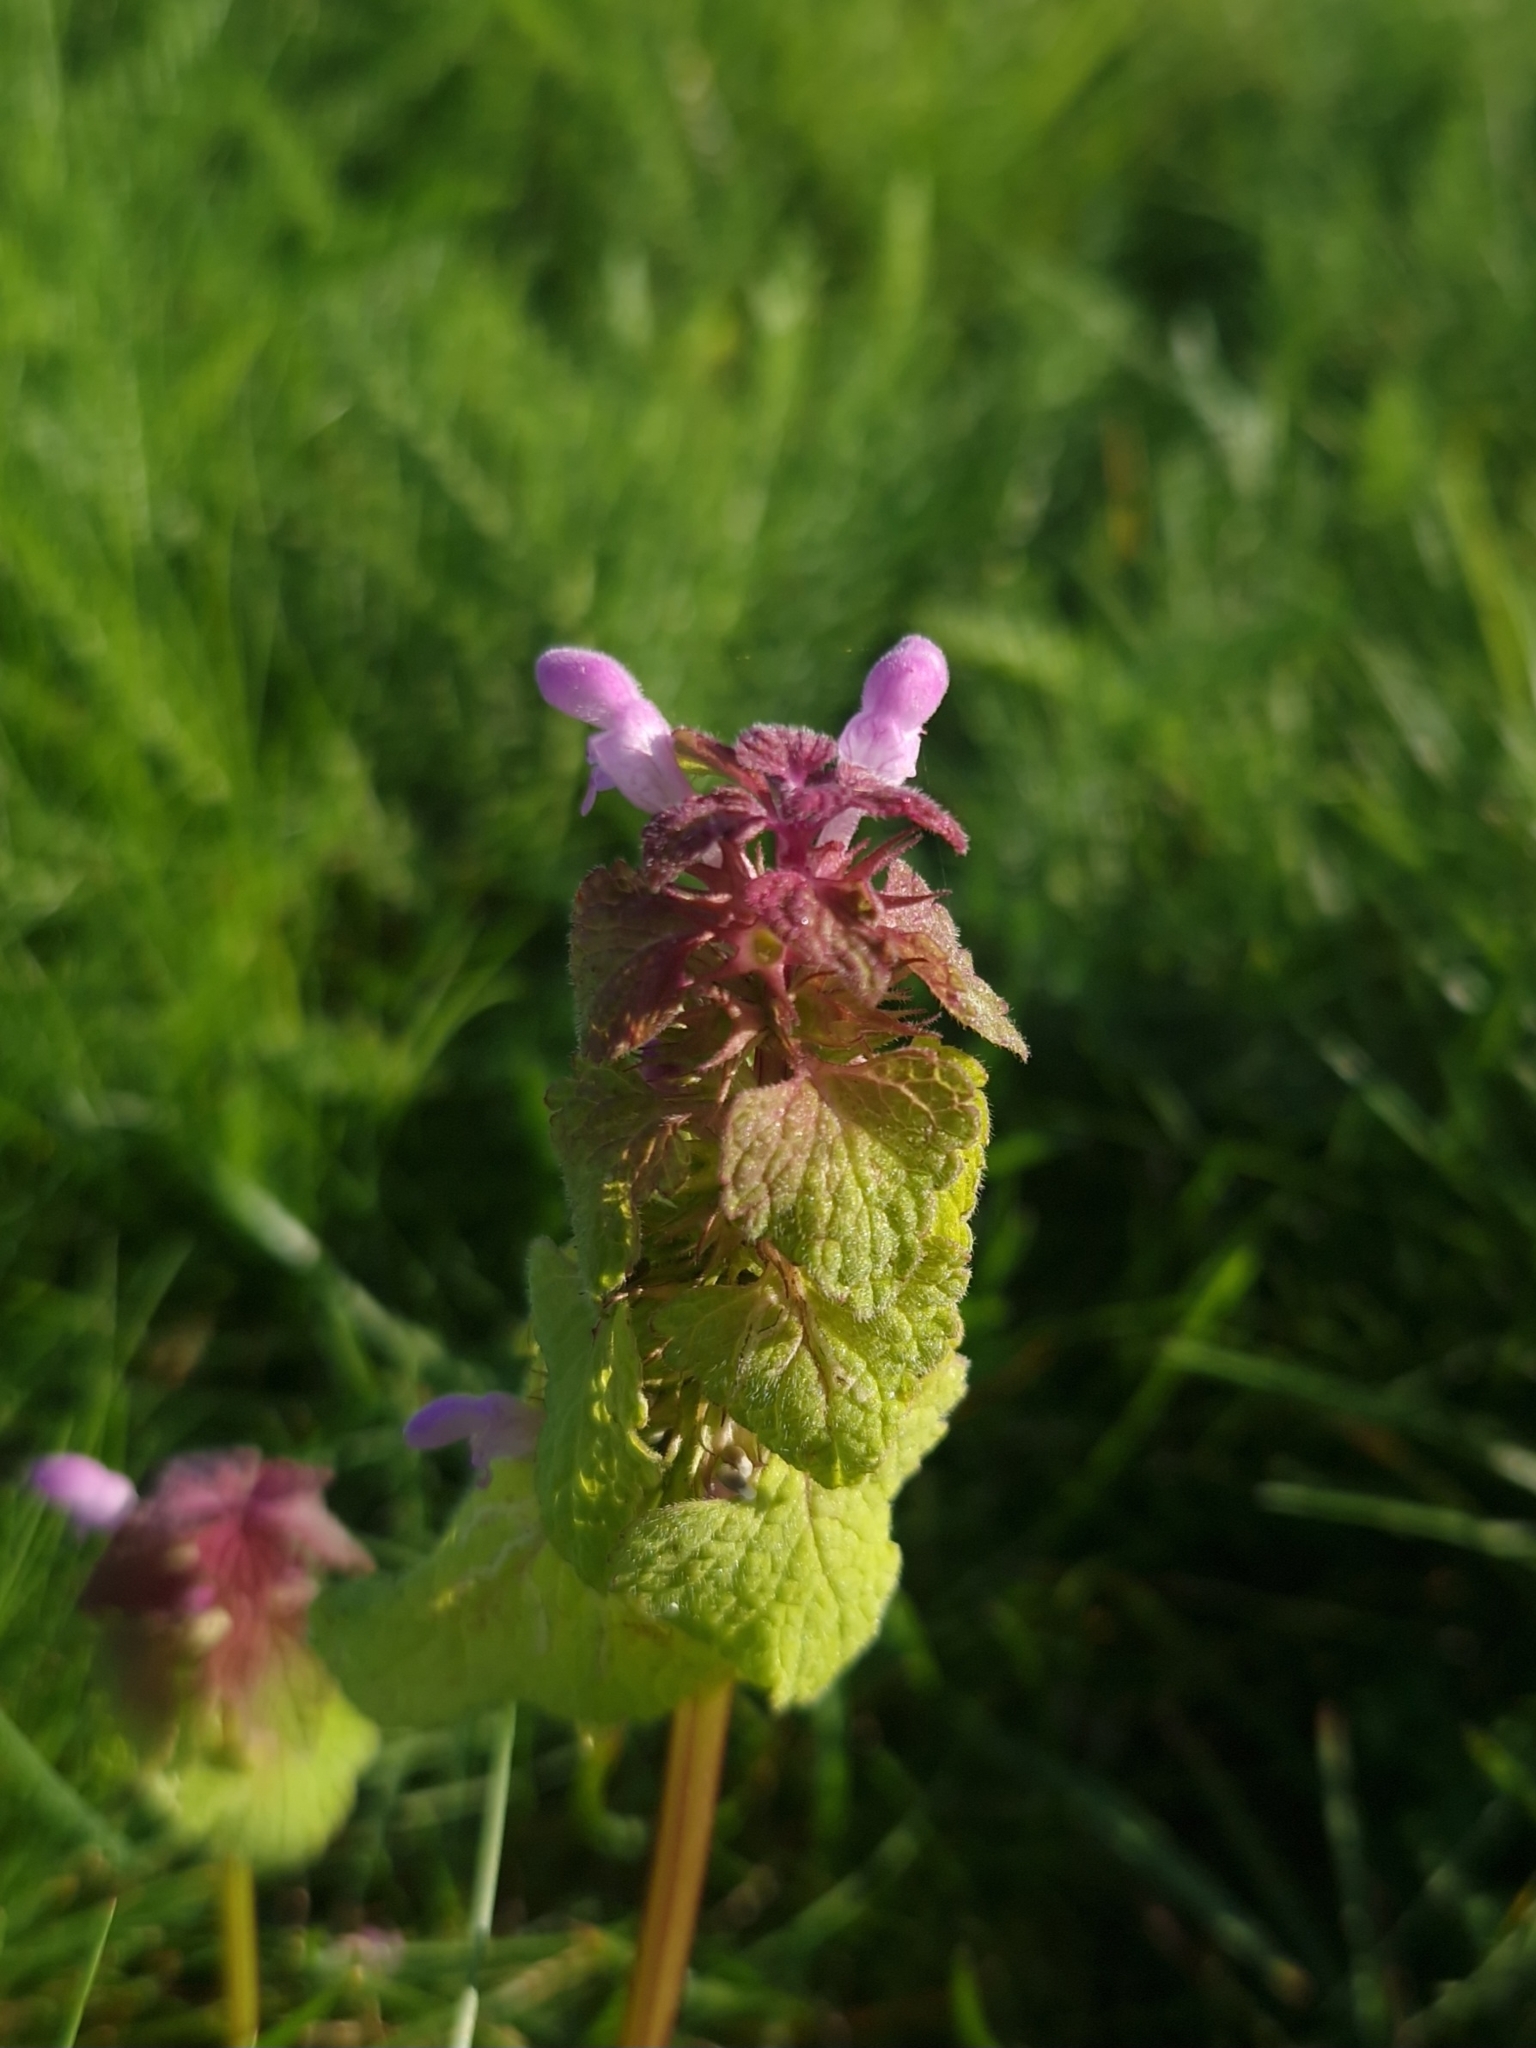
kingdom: Plantae
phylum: Tracheophyta
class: Magnoliopsida
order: Lamiales
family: Lamiaceae
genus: Lamium
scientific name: Lamium purpureum
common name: Red dead-nettle
